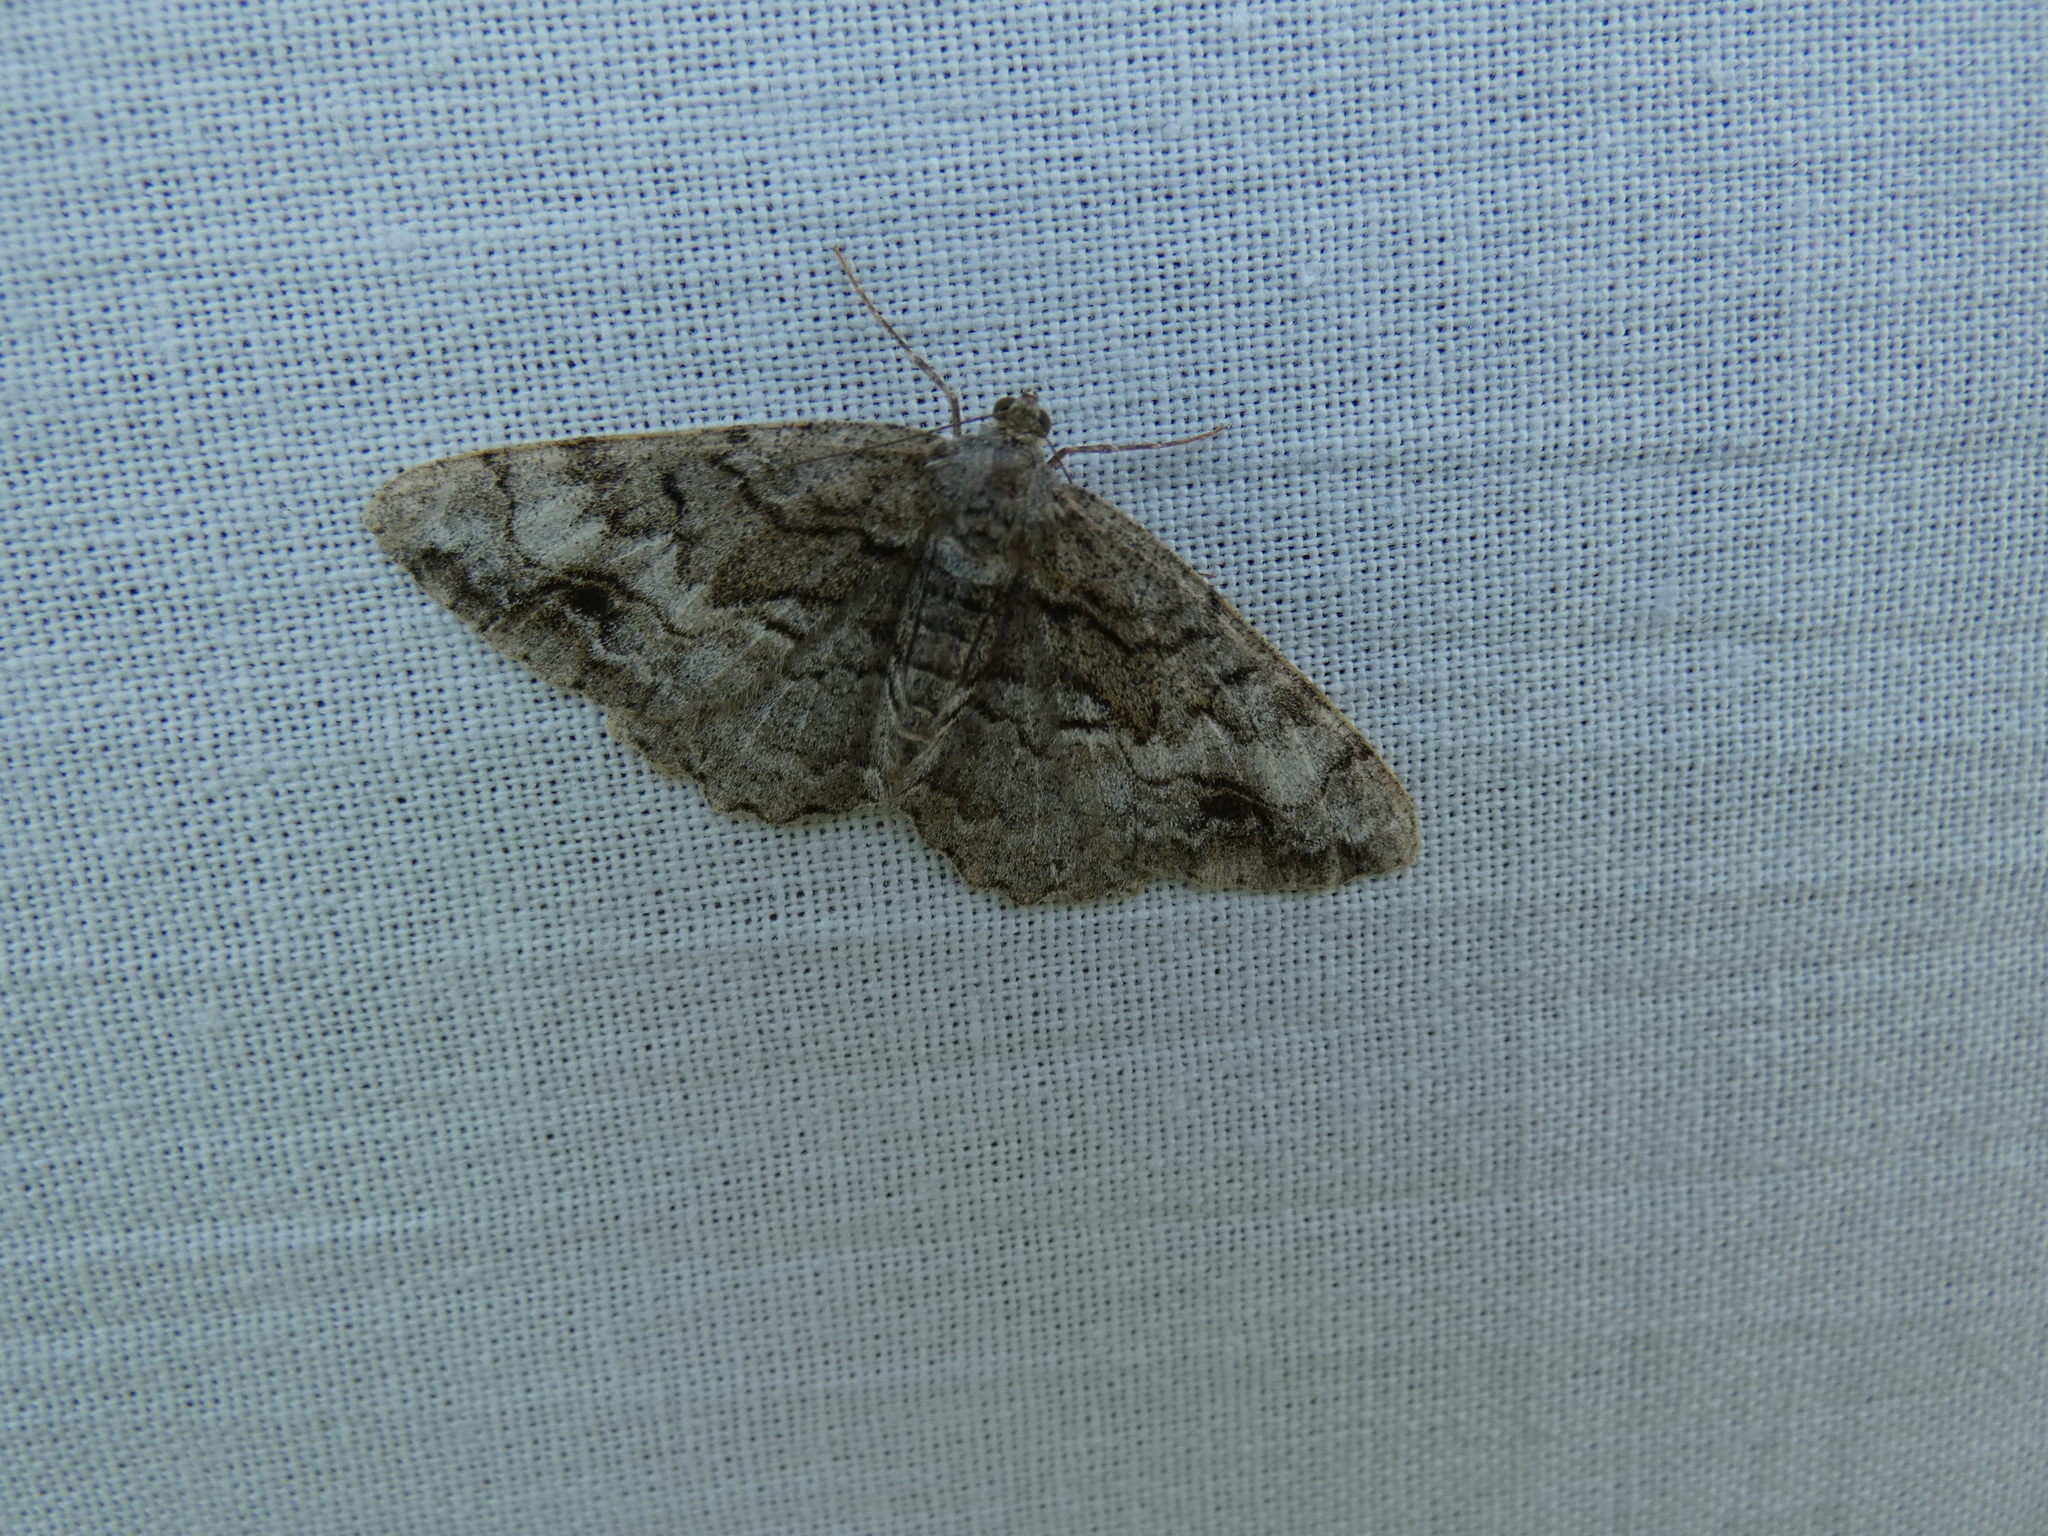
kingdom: Animalia
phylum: Arthropoda
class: Insecta
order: Lepidoptera
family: Geometridae
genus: Alcis
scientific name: Alcis deversata
